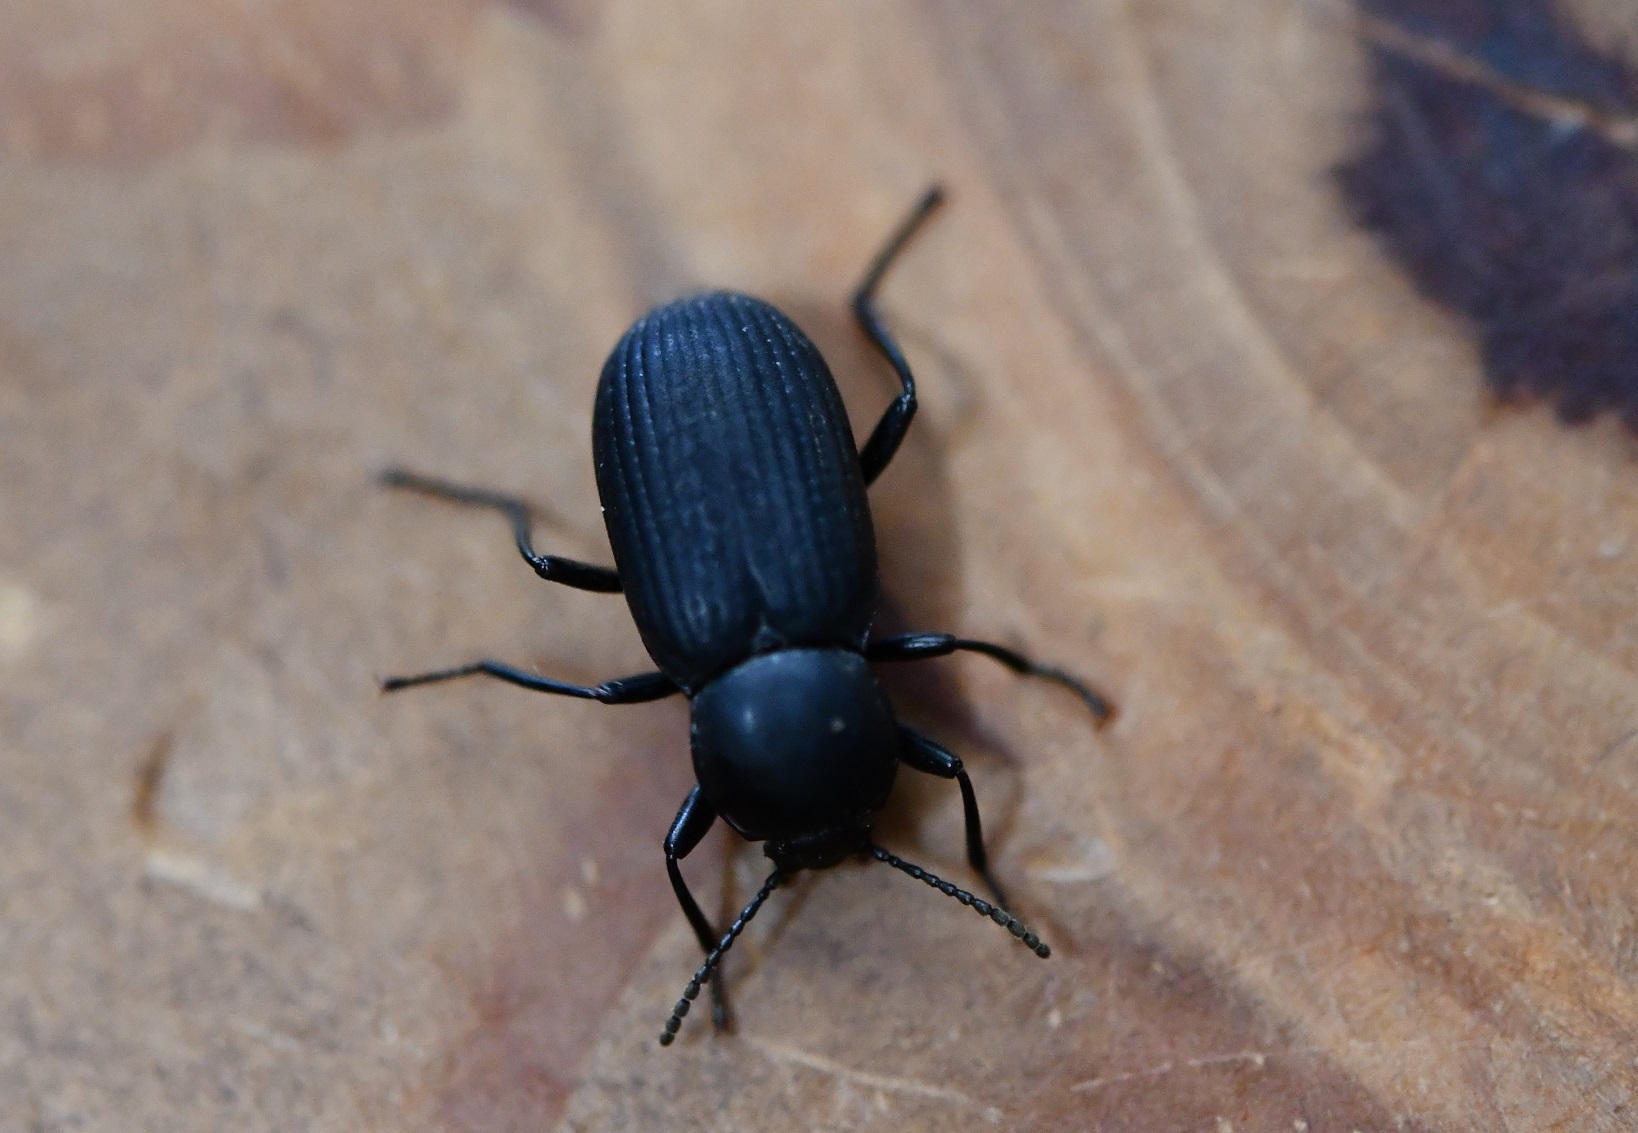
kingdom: Animalia
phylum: Arthropoda
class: Insecta
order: Coleoptera
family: Tenebrionidae
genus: Cymatothes
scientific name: Cymatothes unicolor
